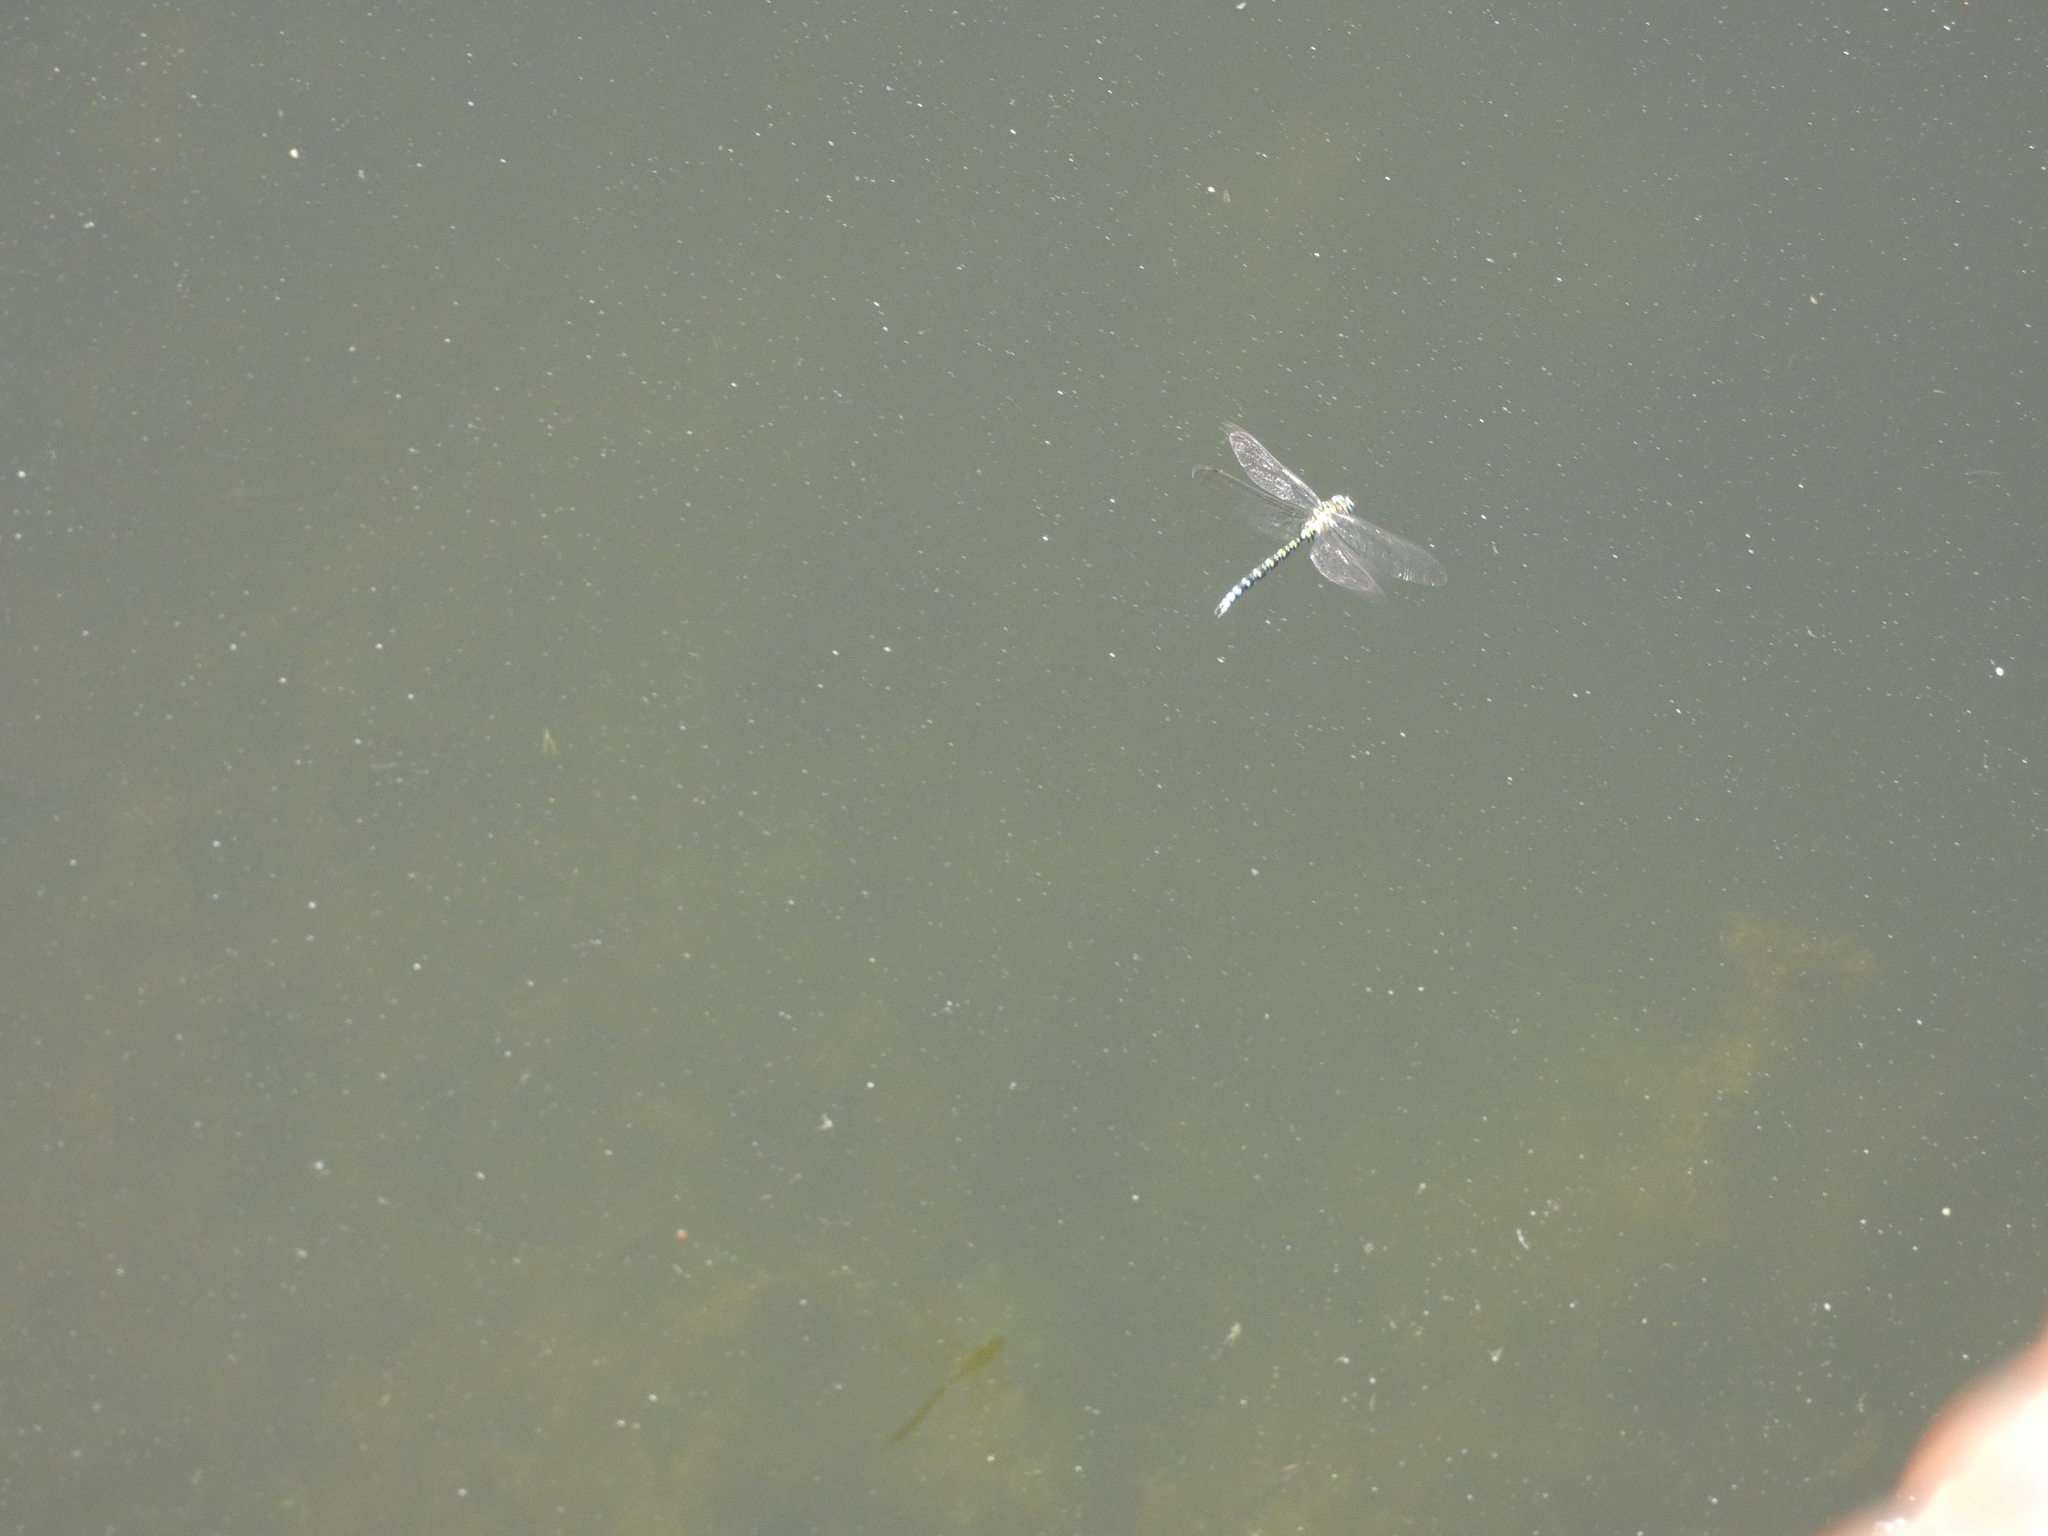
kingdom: Animalia
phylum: Arthropoda
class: Insecta
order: Odonata
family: Aeshnidae
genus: Aeshna
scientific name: Aeshna cyanea
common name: Southern hawker
